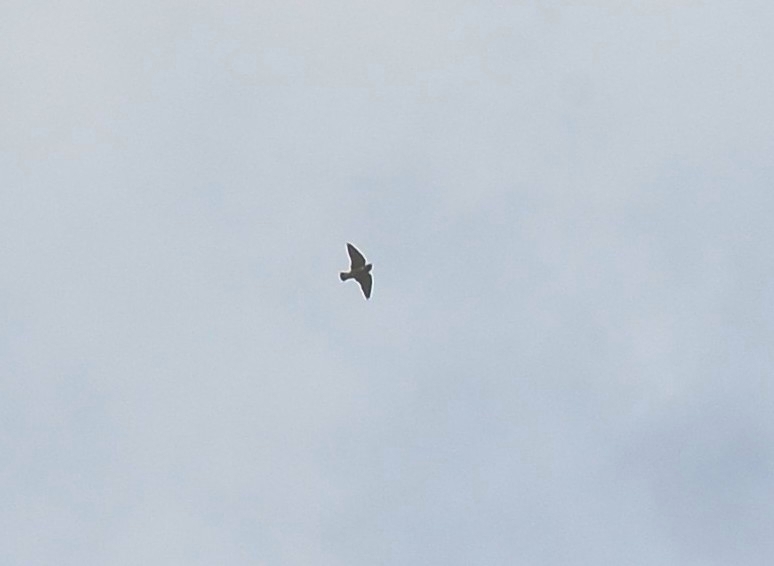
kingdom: Animalia
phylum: Chordata
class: Aves
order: Passeriformes
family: Artamidae
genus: Artamus
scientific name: Artamus fuscus
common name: Ashy woodswallow
